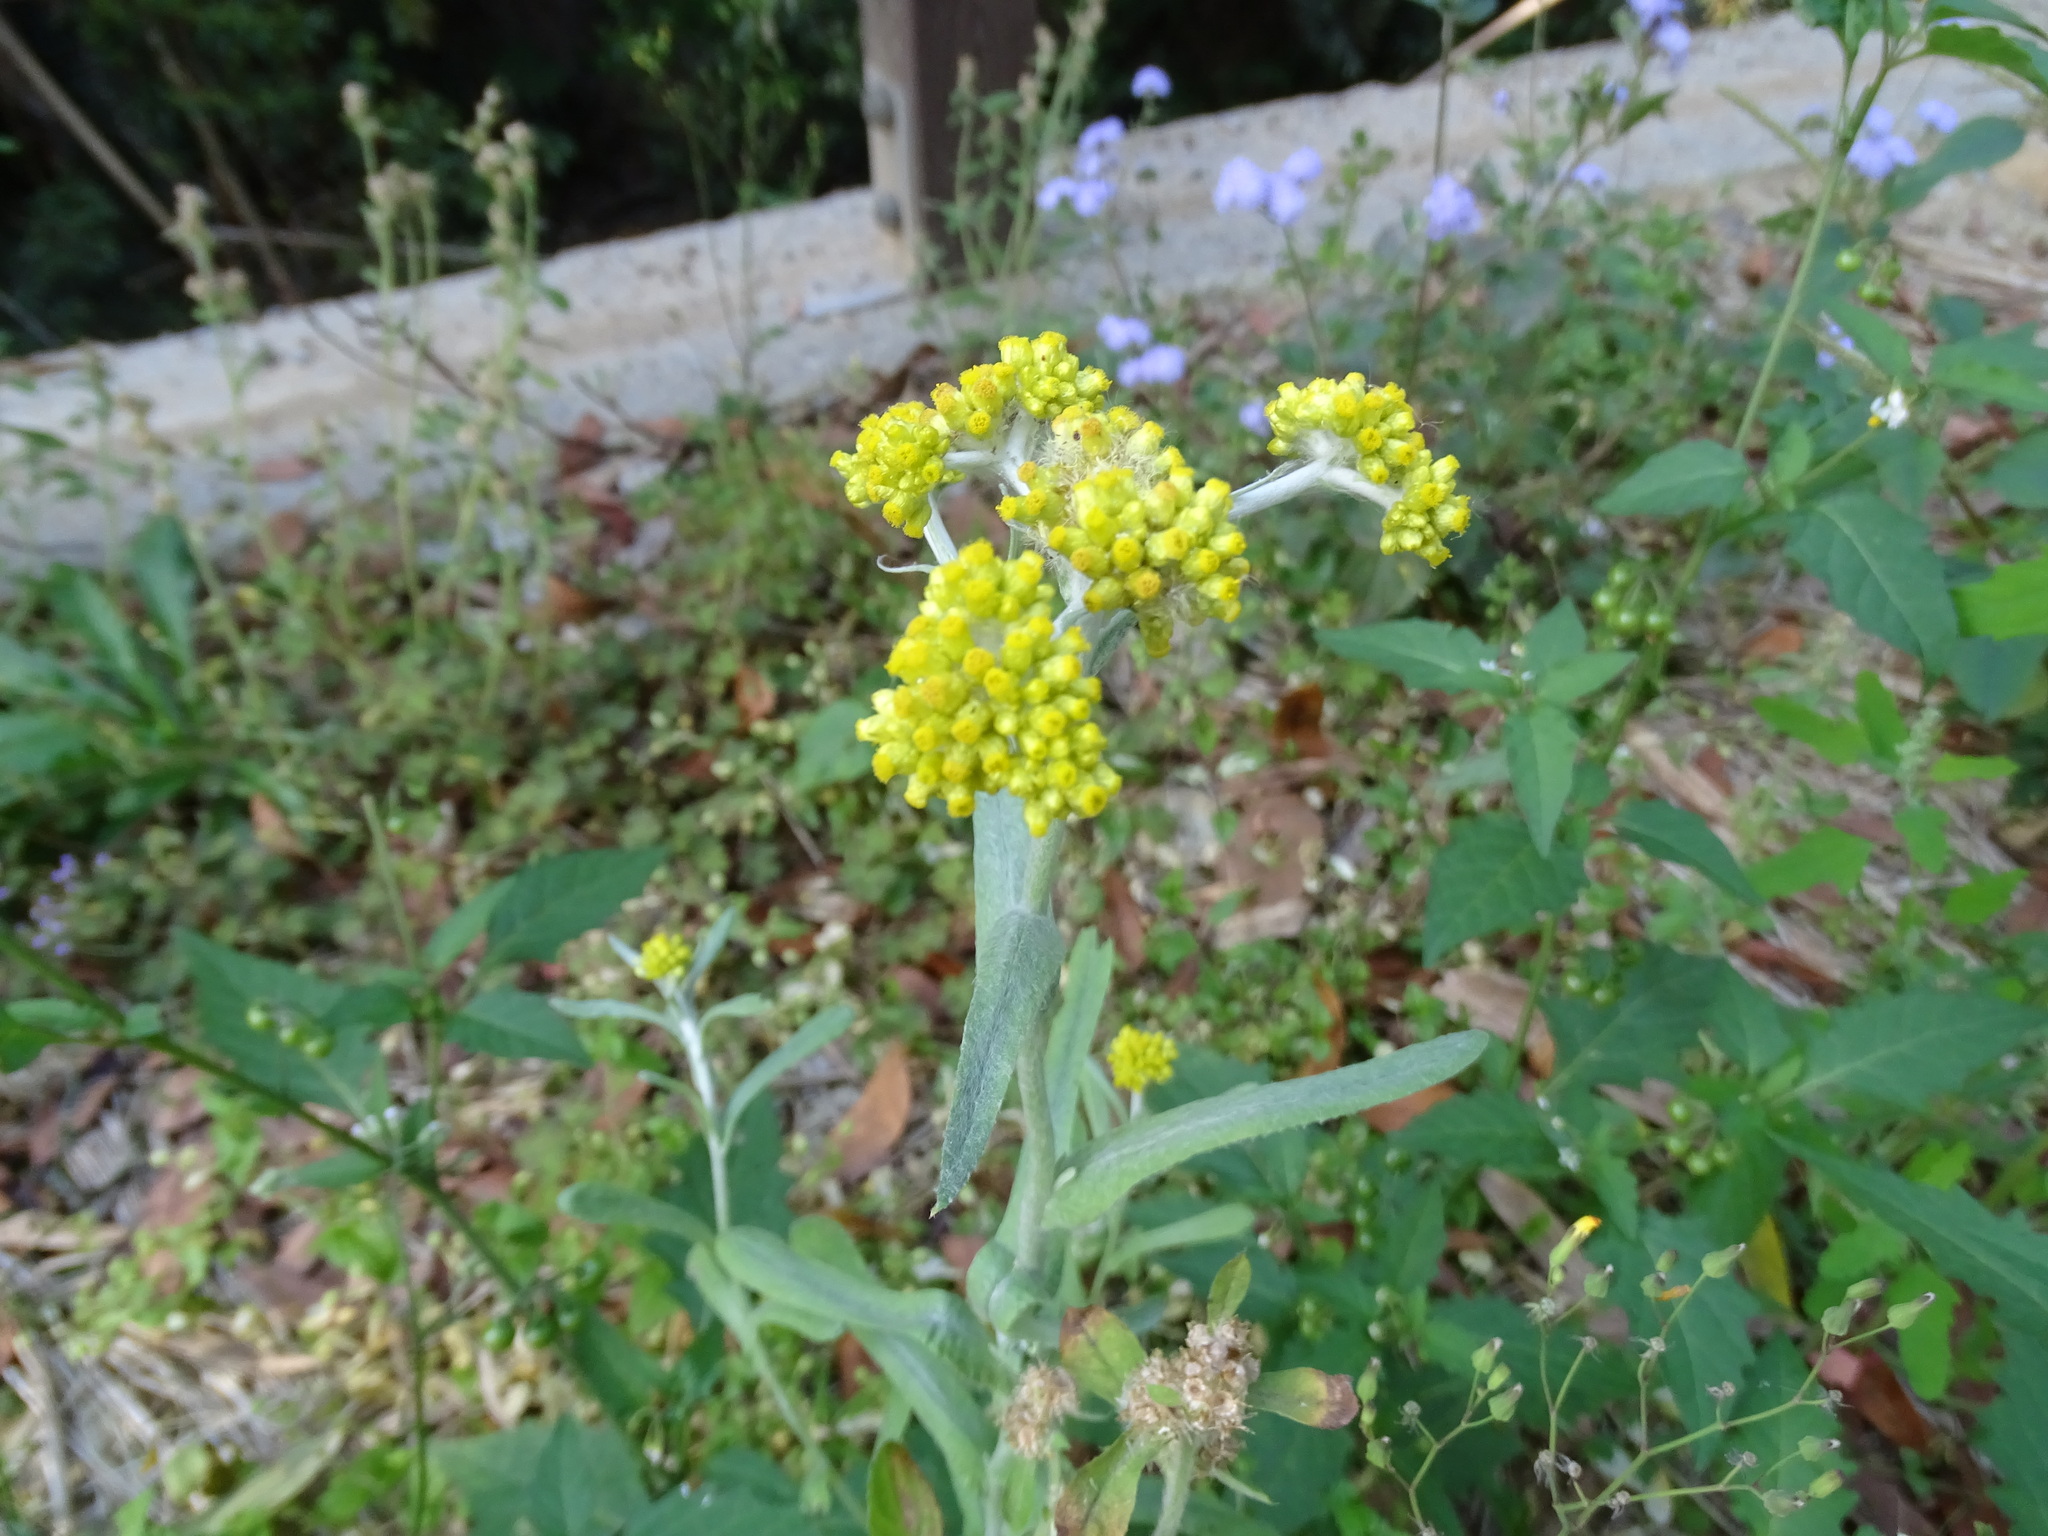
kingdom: Plantae
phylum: Tracheophyta
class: Magnoliopsida
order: Asterales
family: Asteraceae
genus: Pseudognaphalium
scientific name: Pseudognaphalium affine
